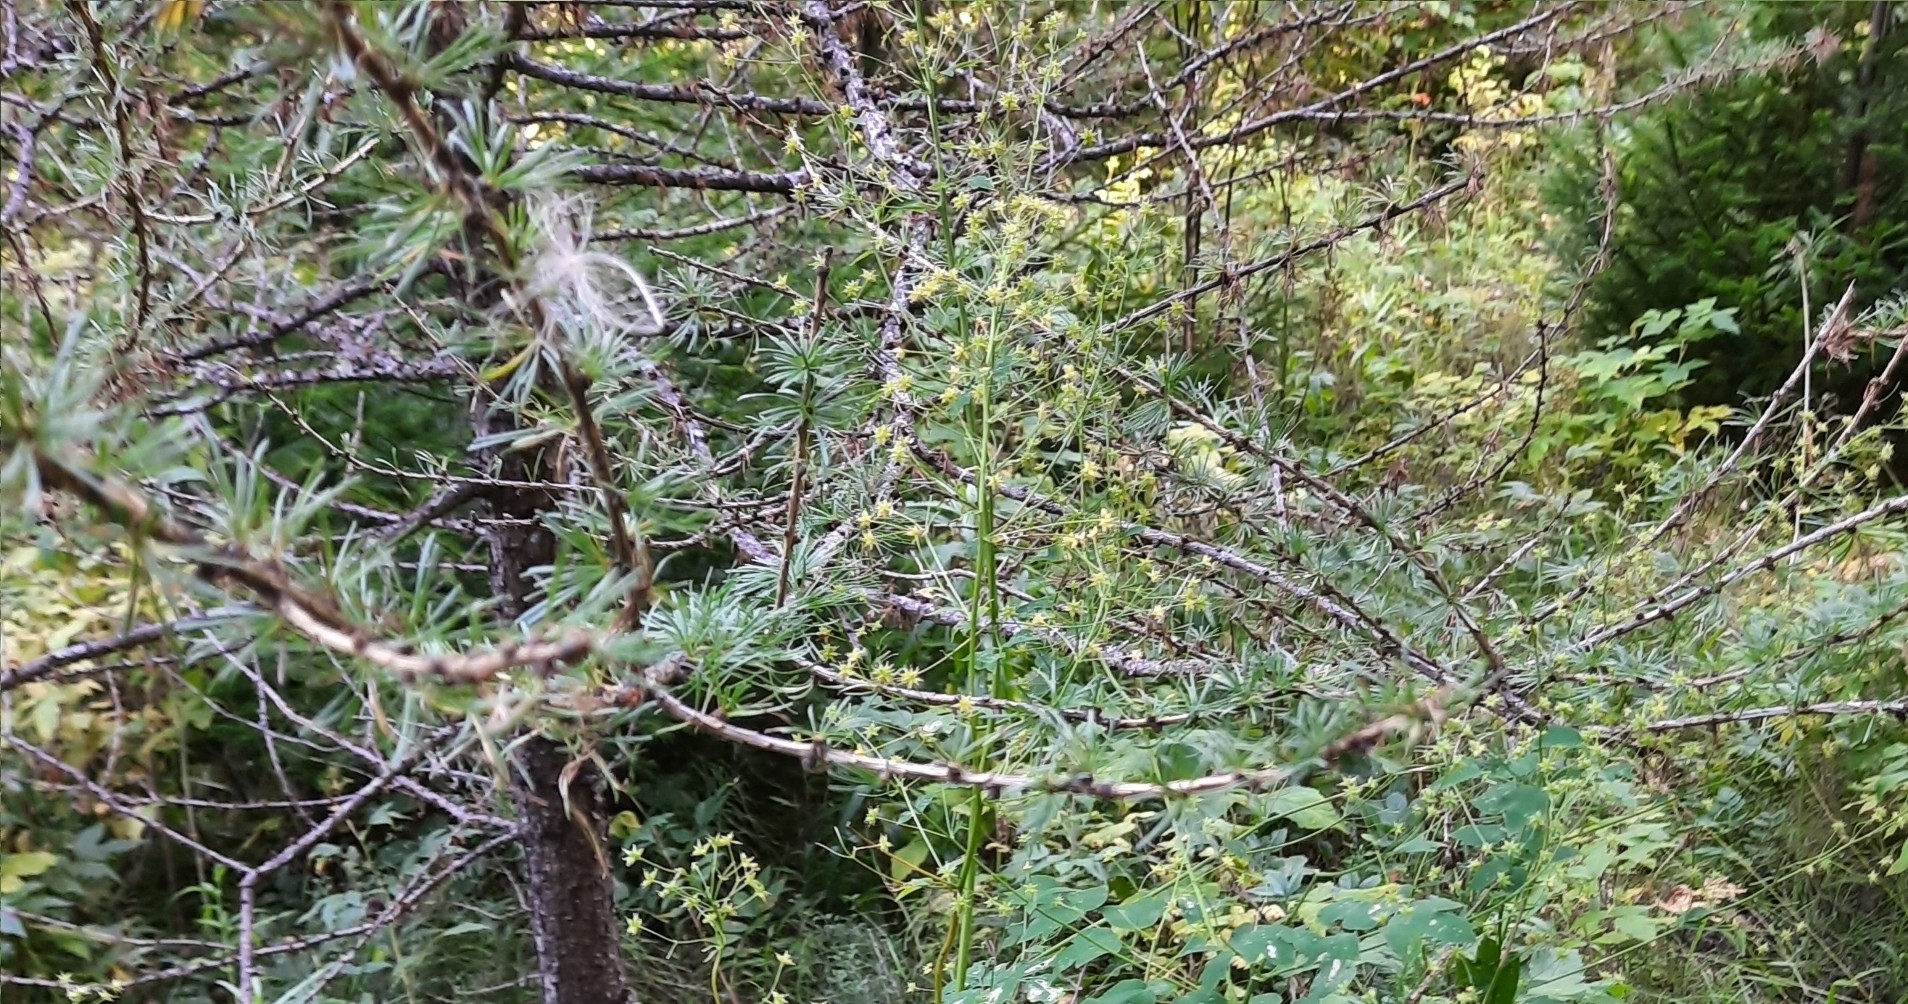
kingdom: Plantae
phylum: Tracheophyta
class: Pinopsida
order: Pinales
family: Pinaceae
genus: Larix
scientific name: Larix sibirica
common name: Siberian larch
